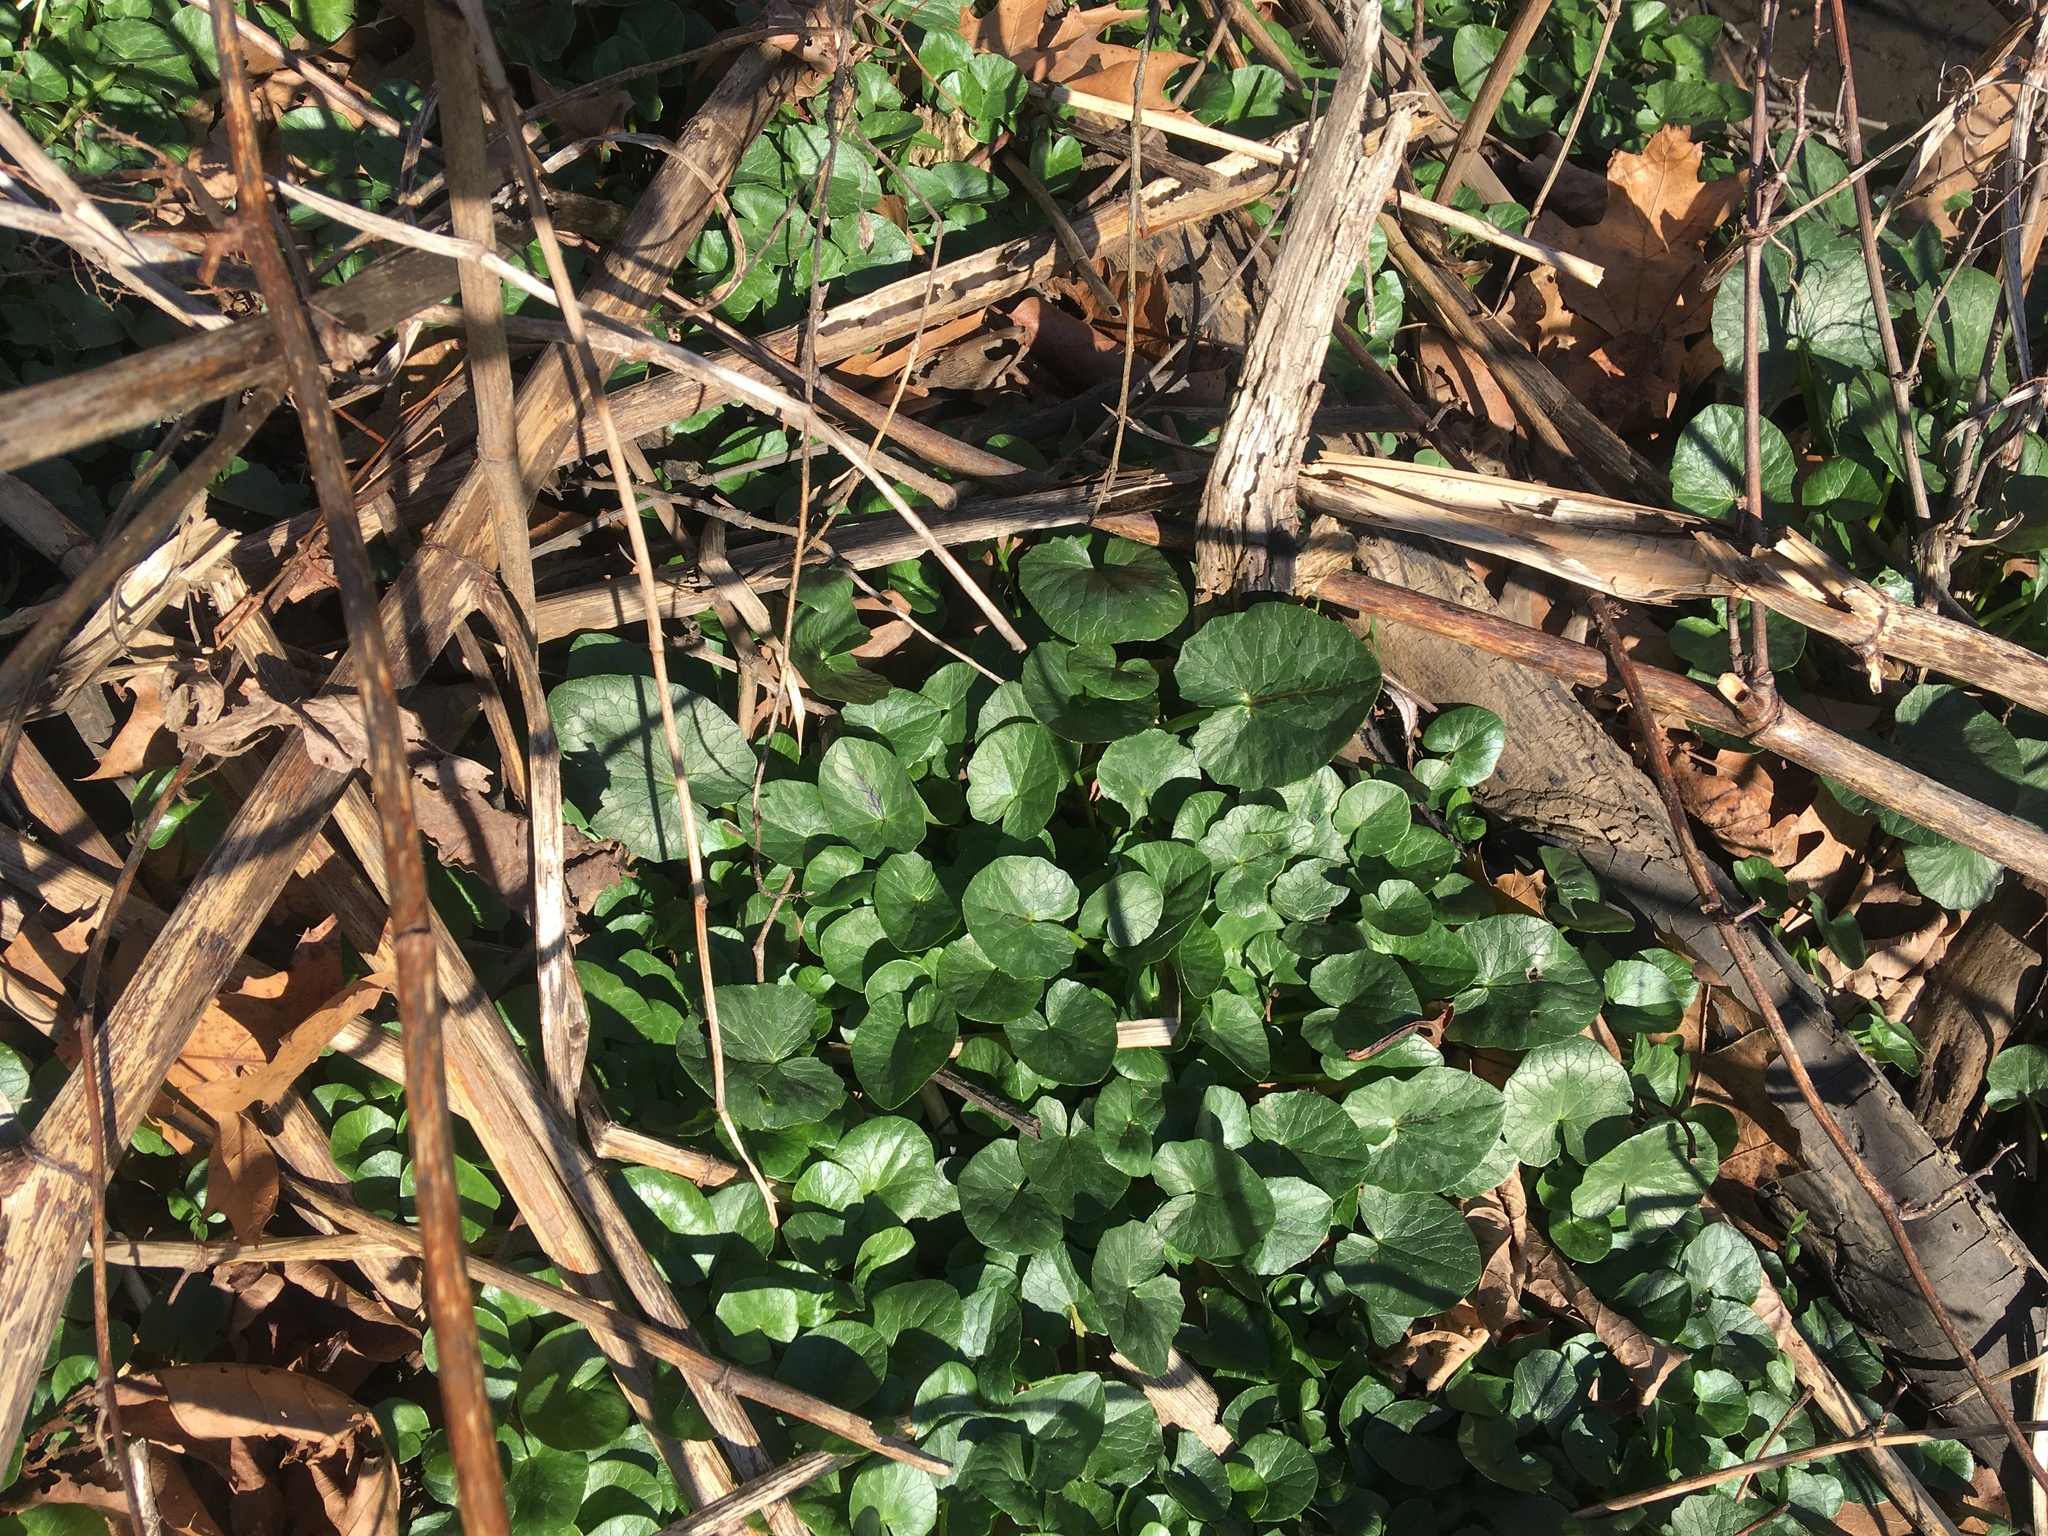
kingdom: Plantae
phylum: Tracheophyta
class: Magnoliopsida
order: Ranunculales
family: Ranunculaceae
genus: Ficaria
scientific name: Ficaria verna
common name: Lesser celandine
